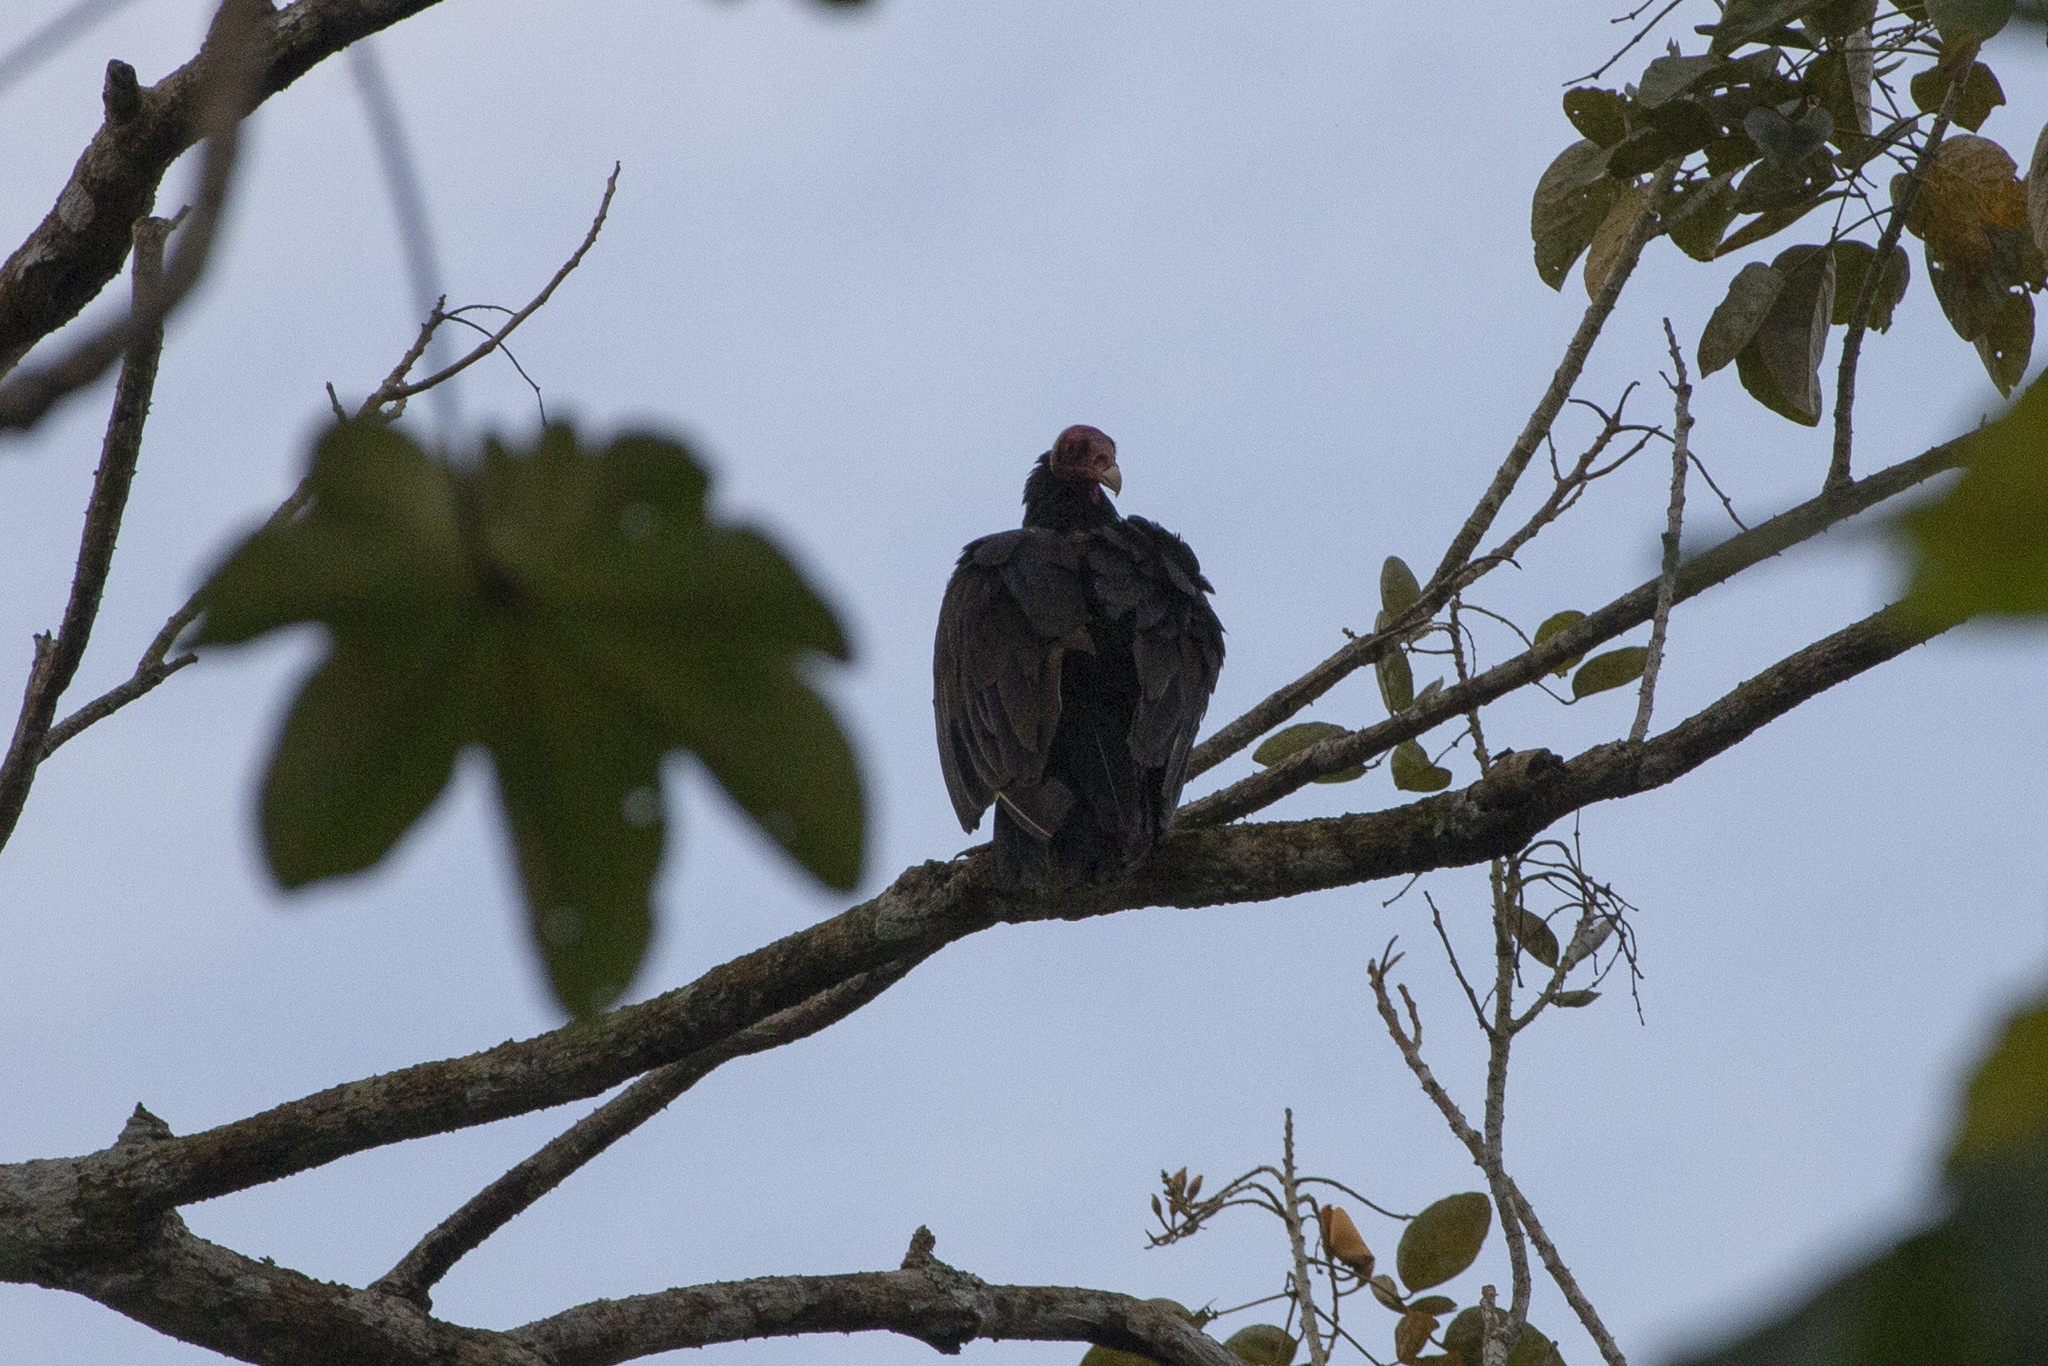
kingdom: Animalia
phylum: Chordata
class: Aves
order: Accipitriformes
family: Cathartidae
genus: Cathartes
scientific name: Cathartes aura
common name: Turkey vulture
